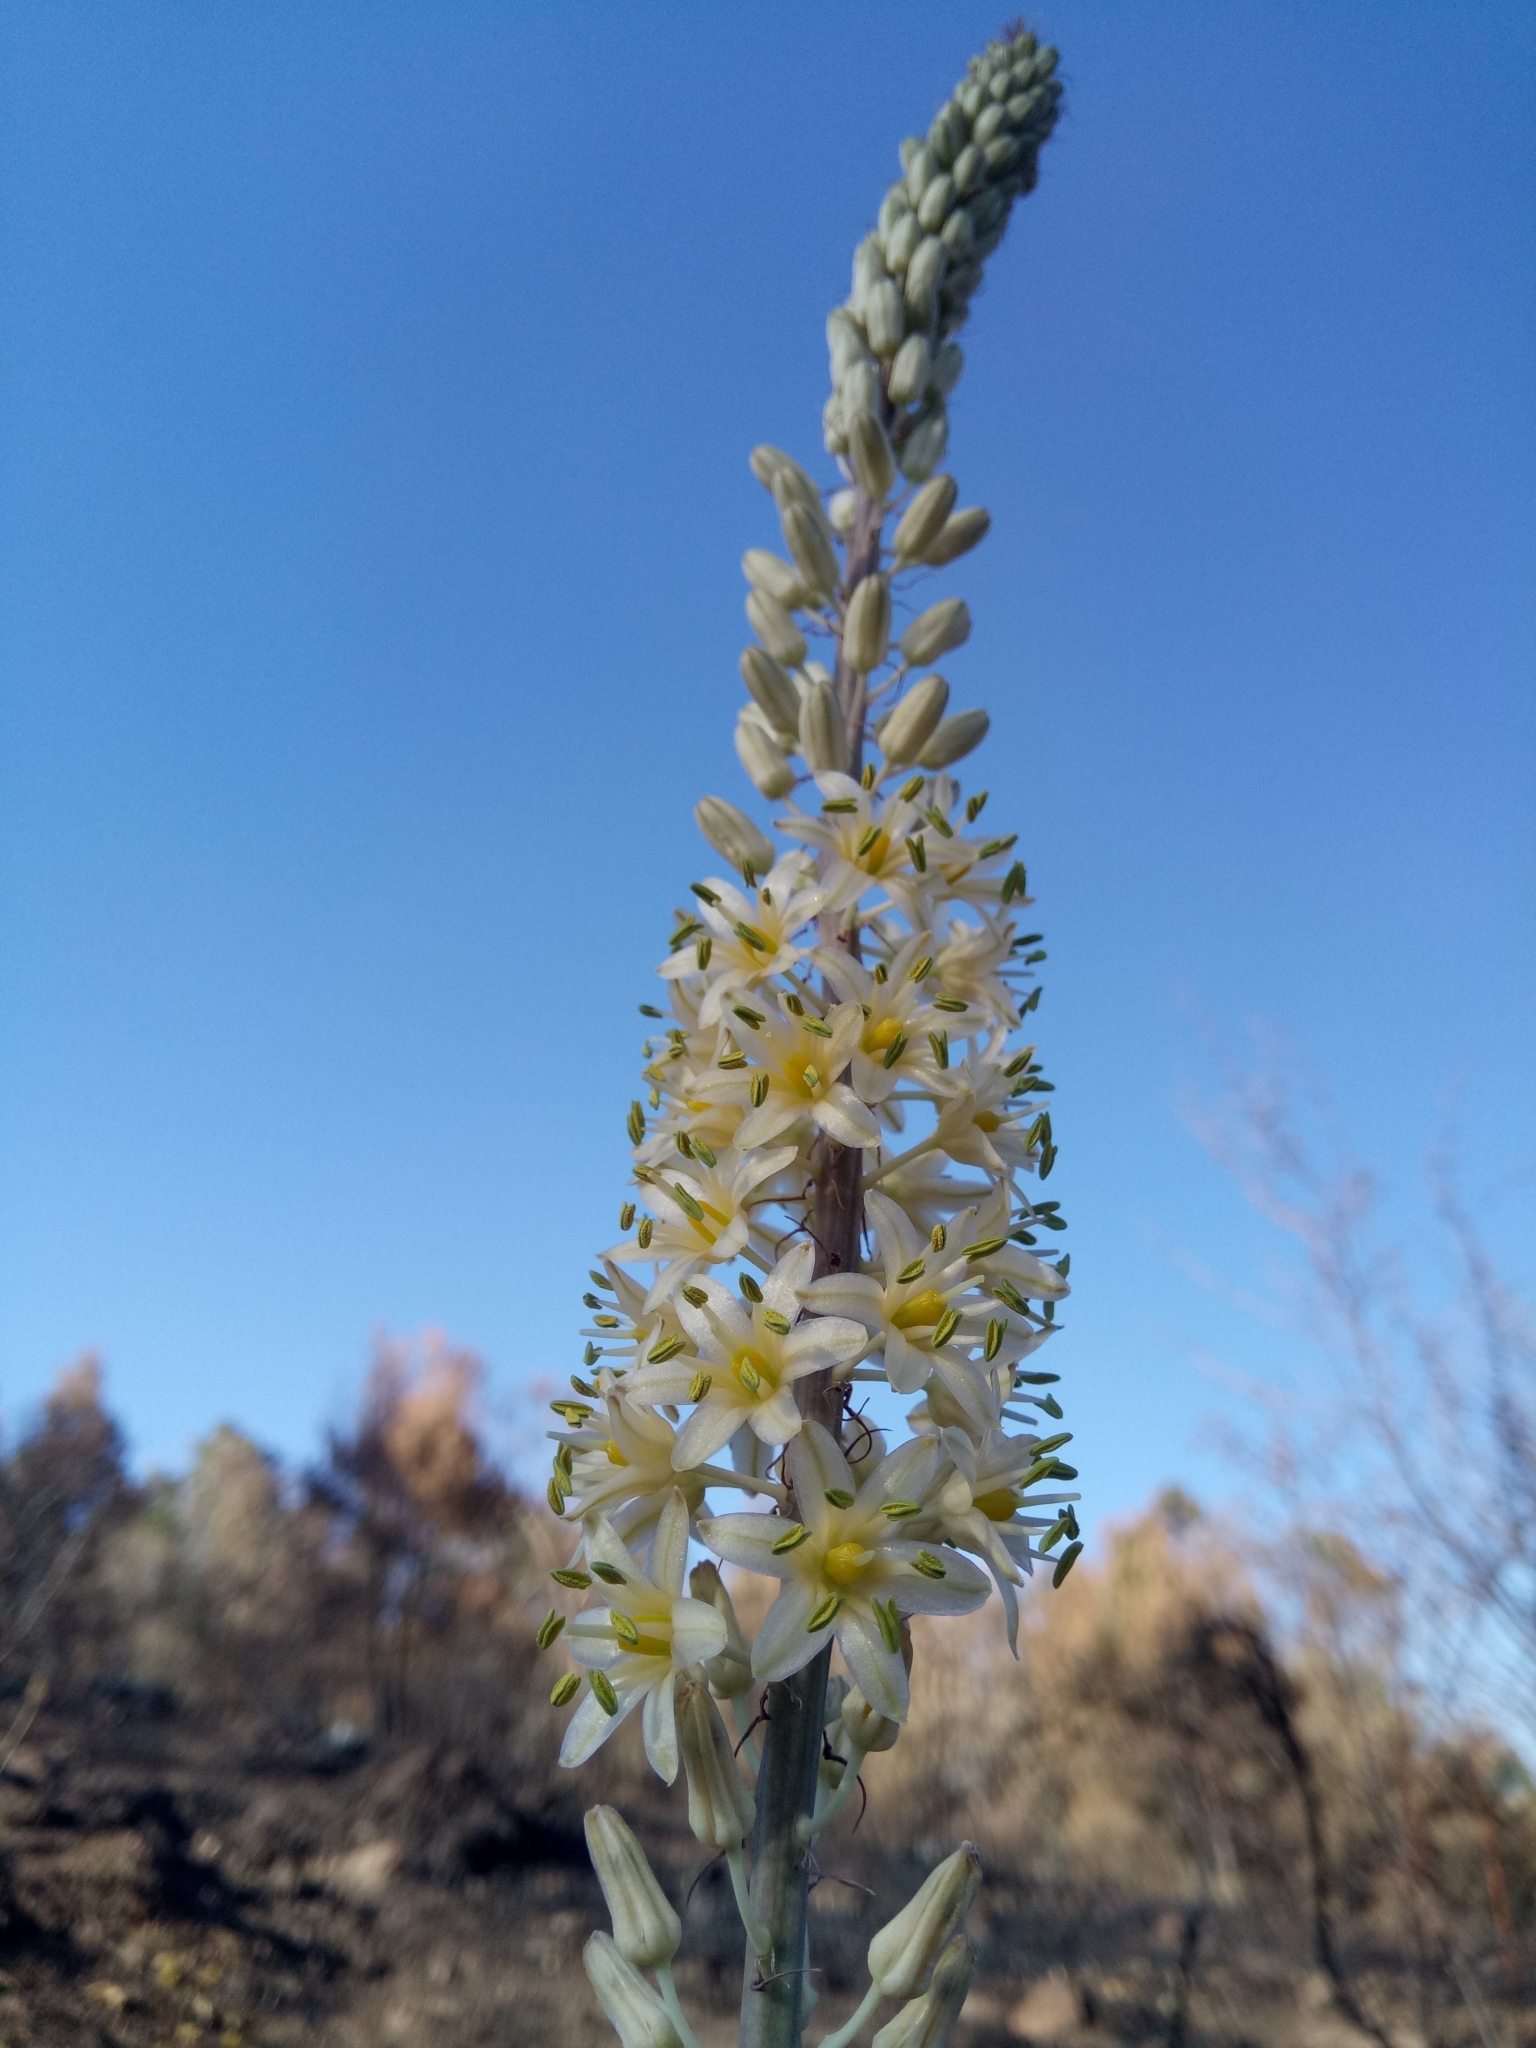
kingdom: Plantae
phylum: Tracheophyta
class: Liliopsida
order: Asparagales
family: Asparagaceae
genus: Drimia
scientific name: Drimia anthericoides
